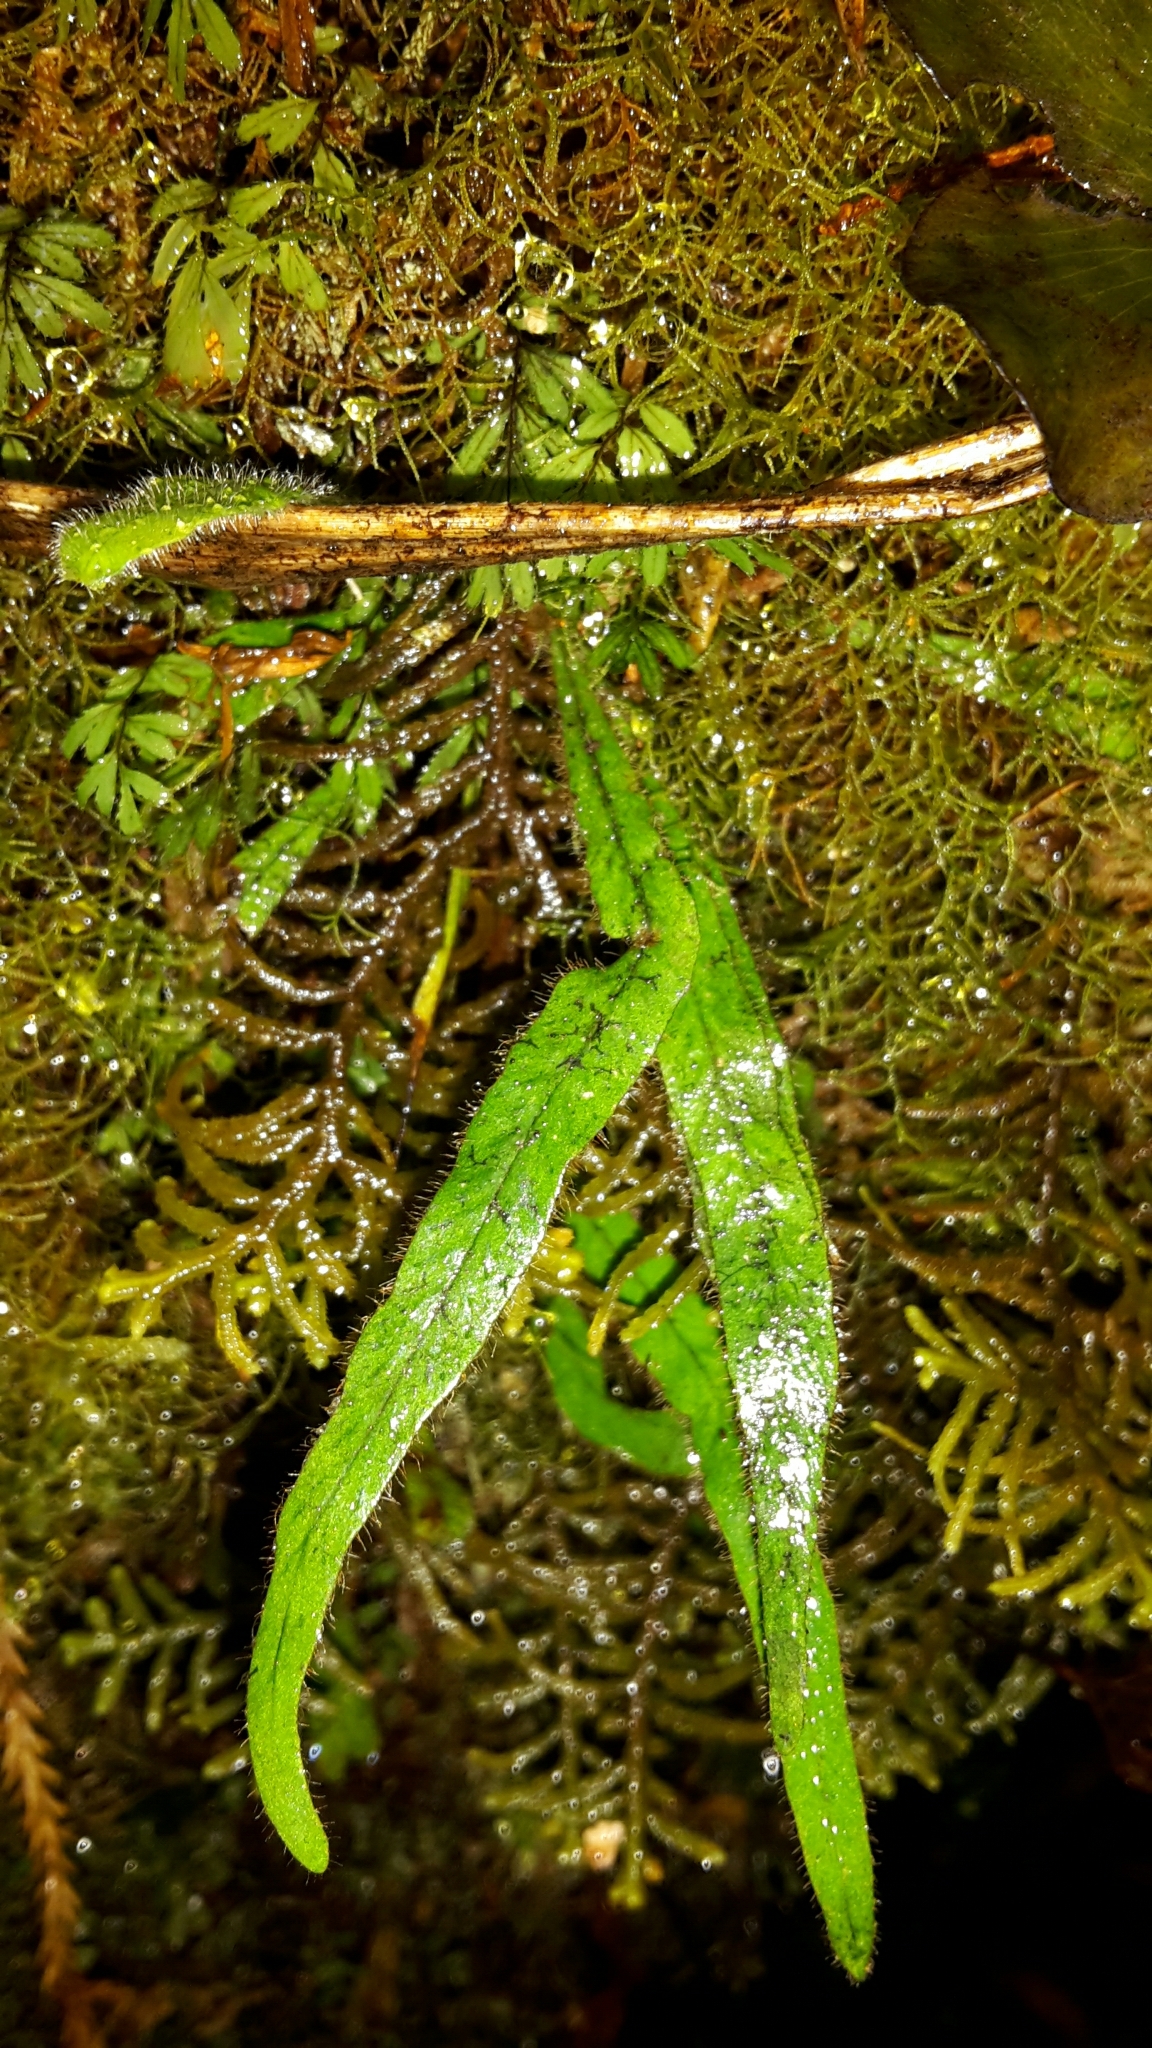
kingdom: Plantae
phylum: Tracheophyta
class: Polypodiopsida
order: Polypodiales
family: Polypodiaceae
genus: Notogrammitis
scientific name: Notogrammitis pseudociliata
